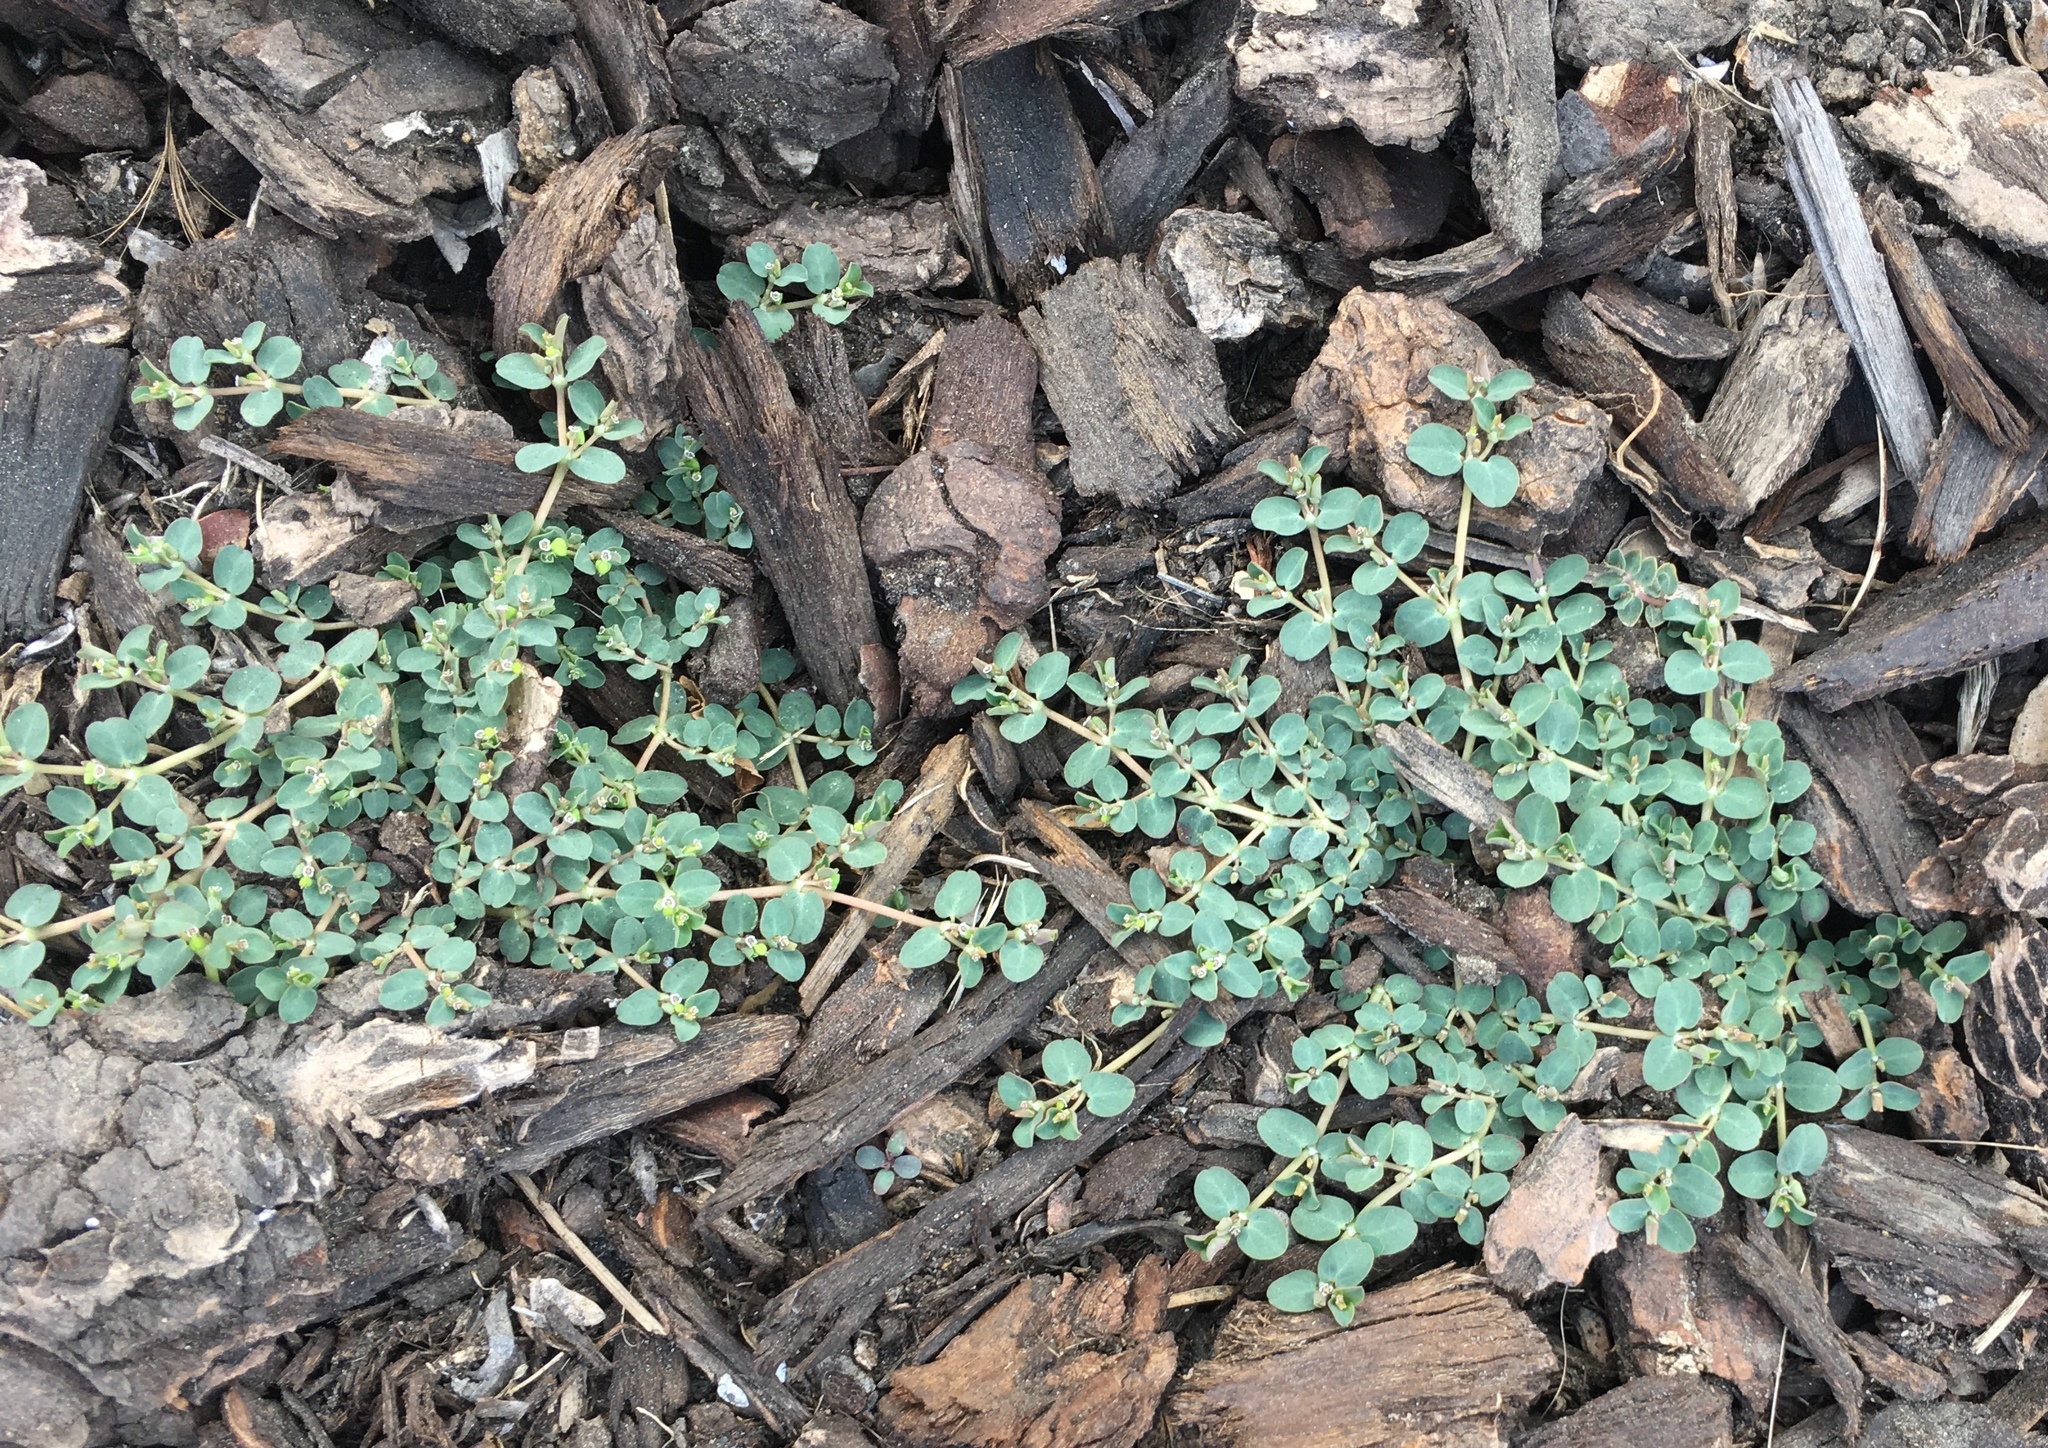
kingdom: Plantae
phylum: Tracheophyta
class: Magnoliopsida
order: Malpighiales
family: Euphorbiaceae
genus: Euphorbia
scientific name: Euphorbia serpens
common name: Matted sandmat
